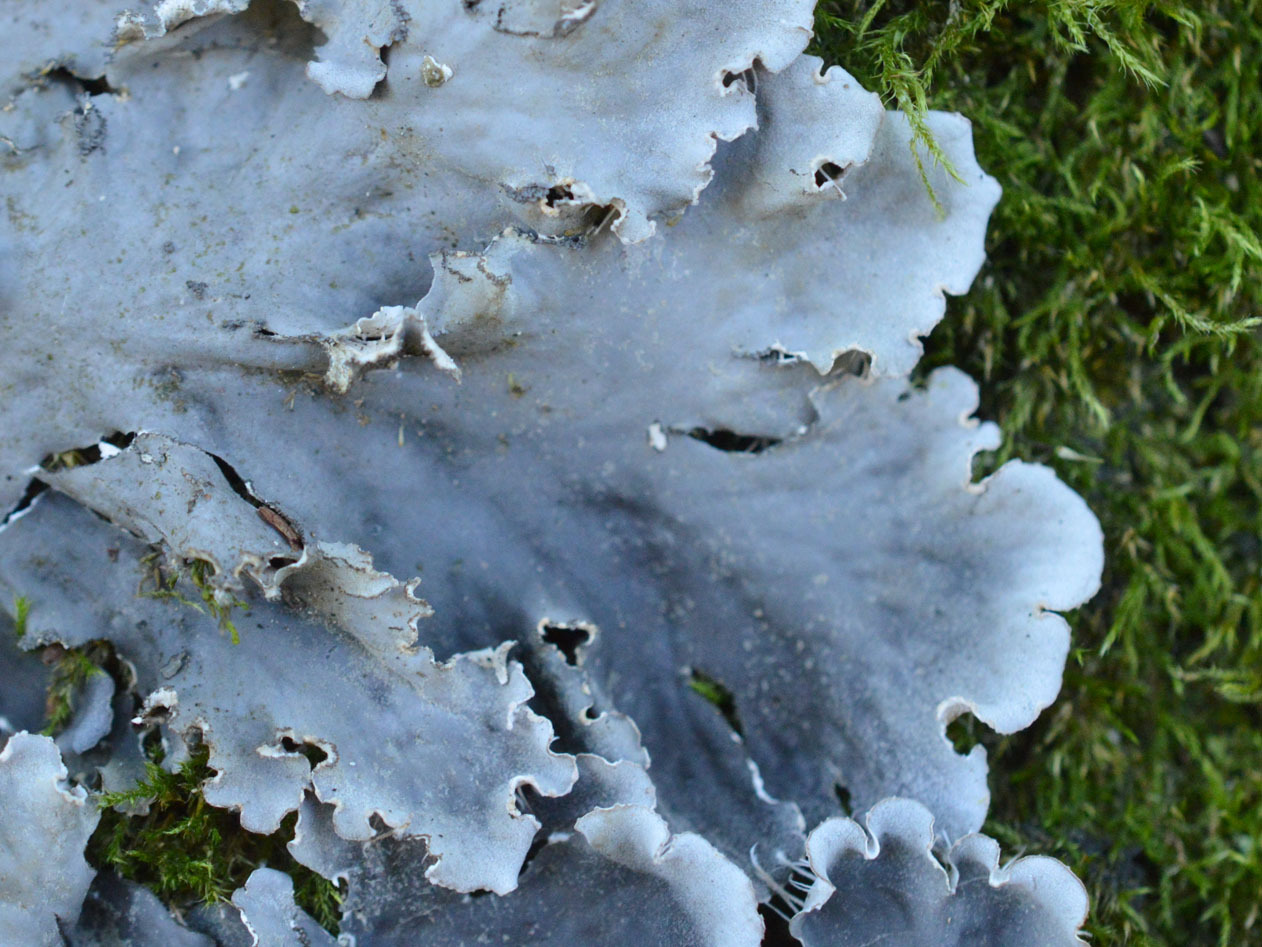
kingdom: Fungi
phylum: Ascomycota
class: Lecanoromycetes
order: Peltigerales
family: Peltigeraceae
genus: Peltigera
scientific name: Peltigera praetextata
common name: Scaly dog-lichen
